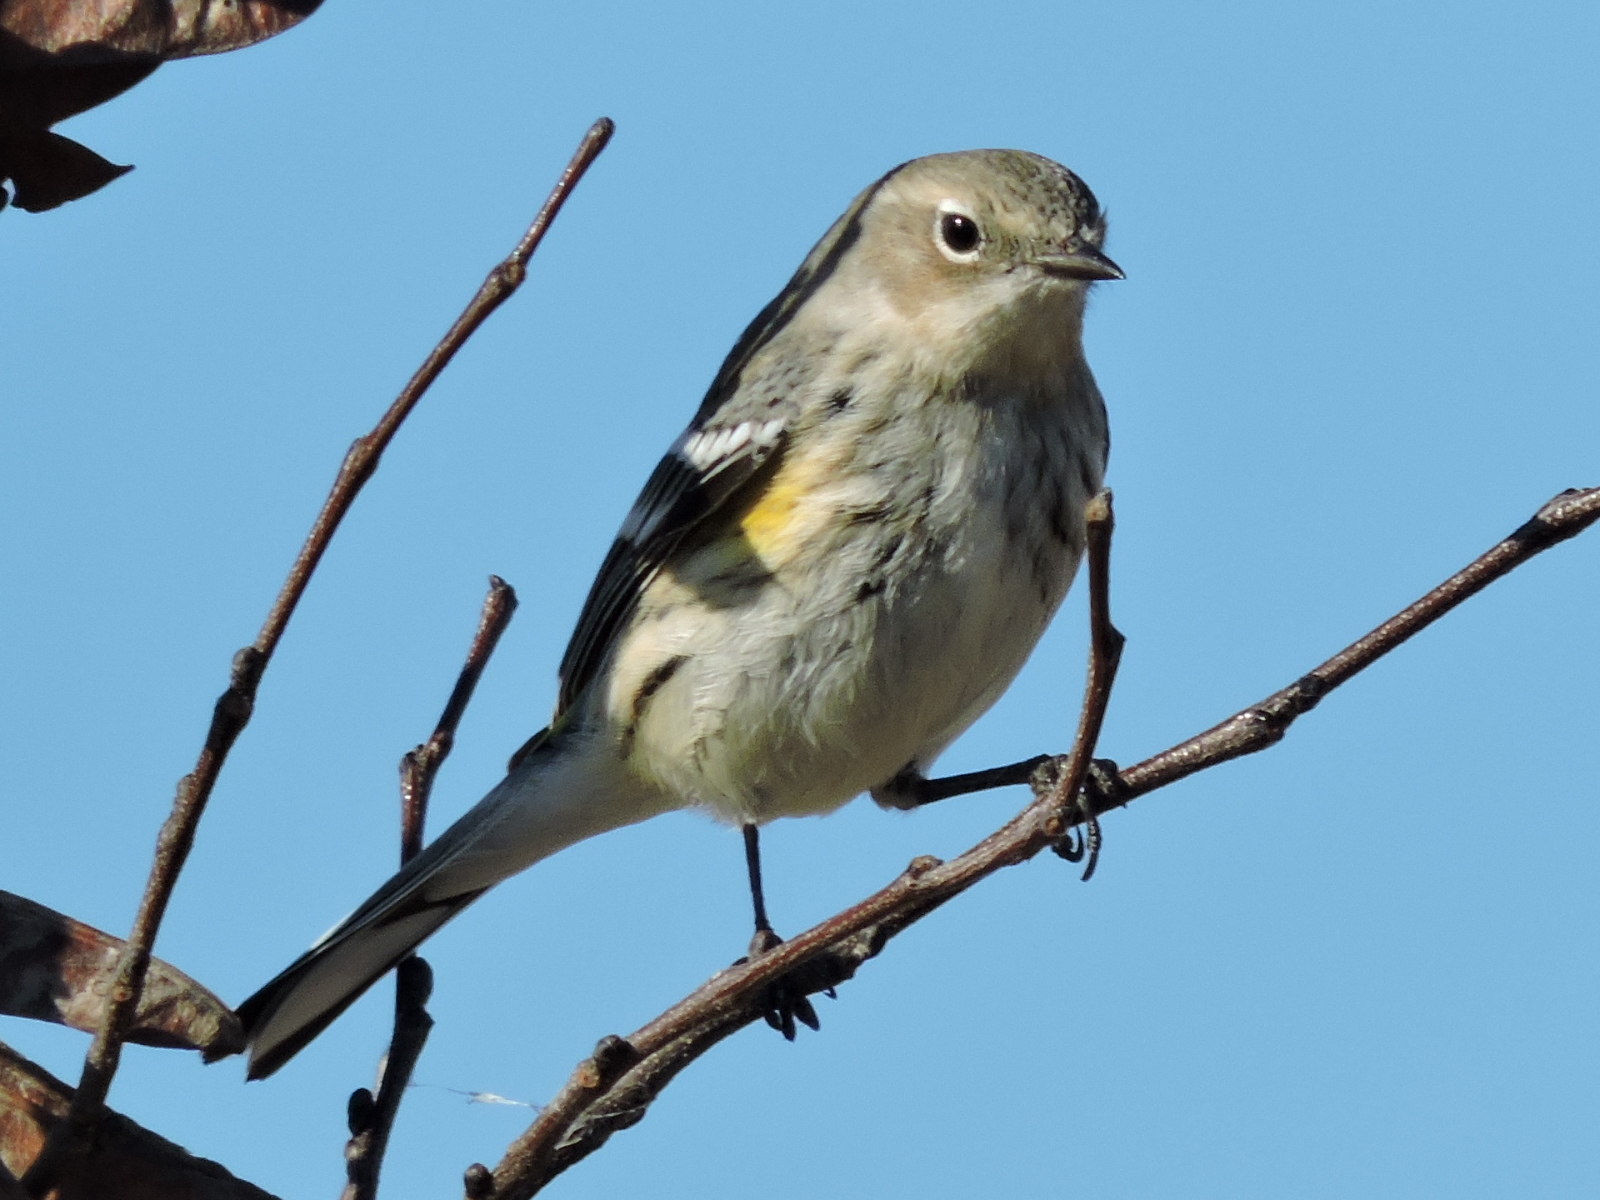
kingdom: Animalia
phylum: Chordata
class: Aves
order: Passeriformes
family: Parulidae
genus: Setophaga
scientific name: Setophaga coronata
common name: Myrtle warbler
